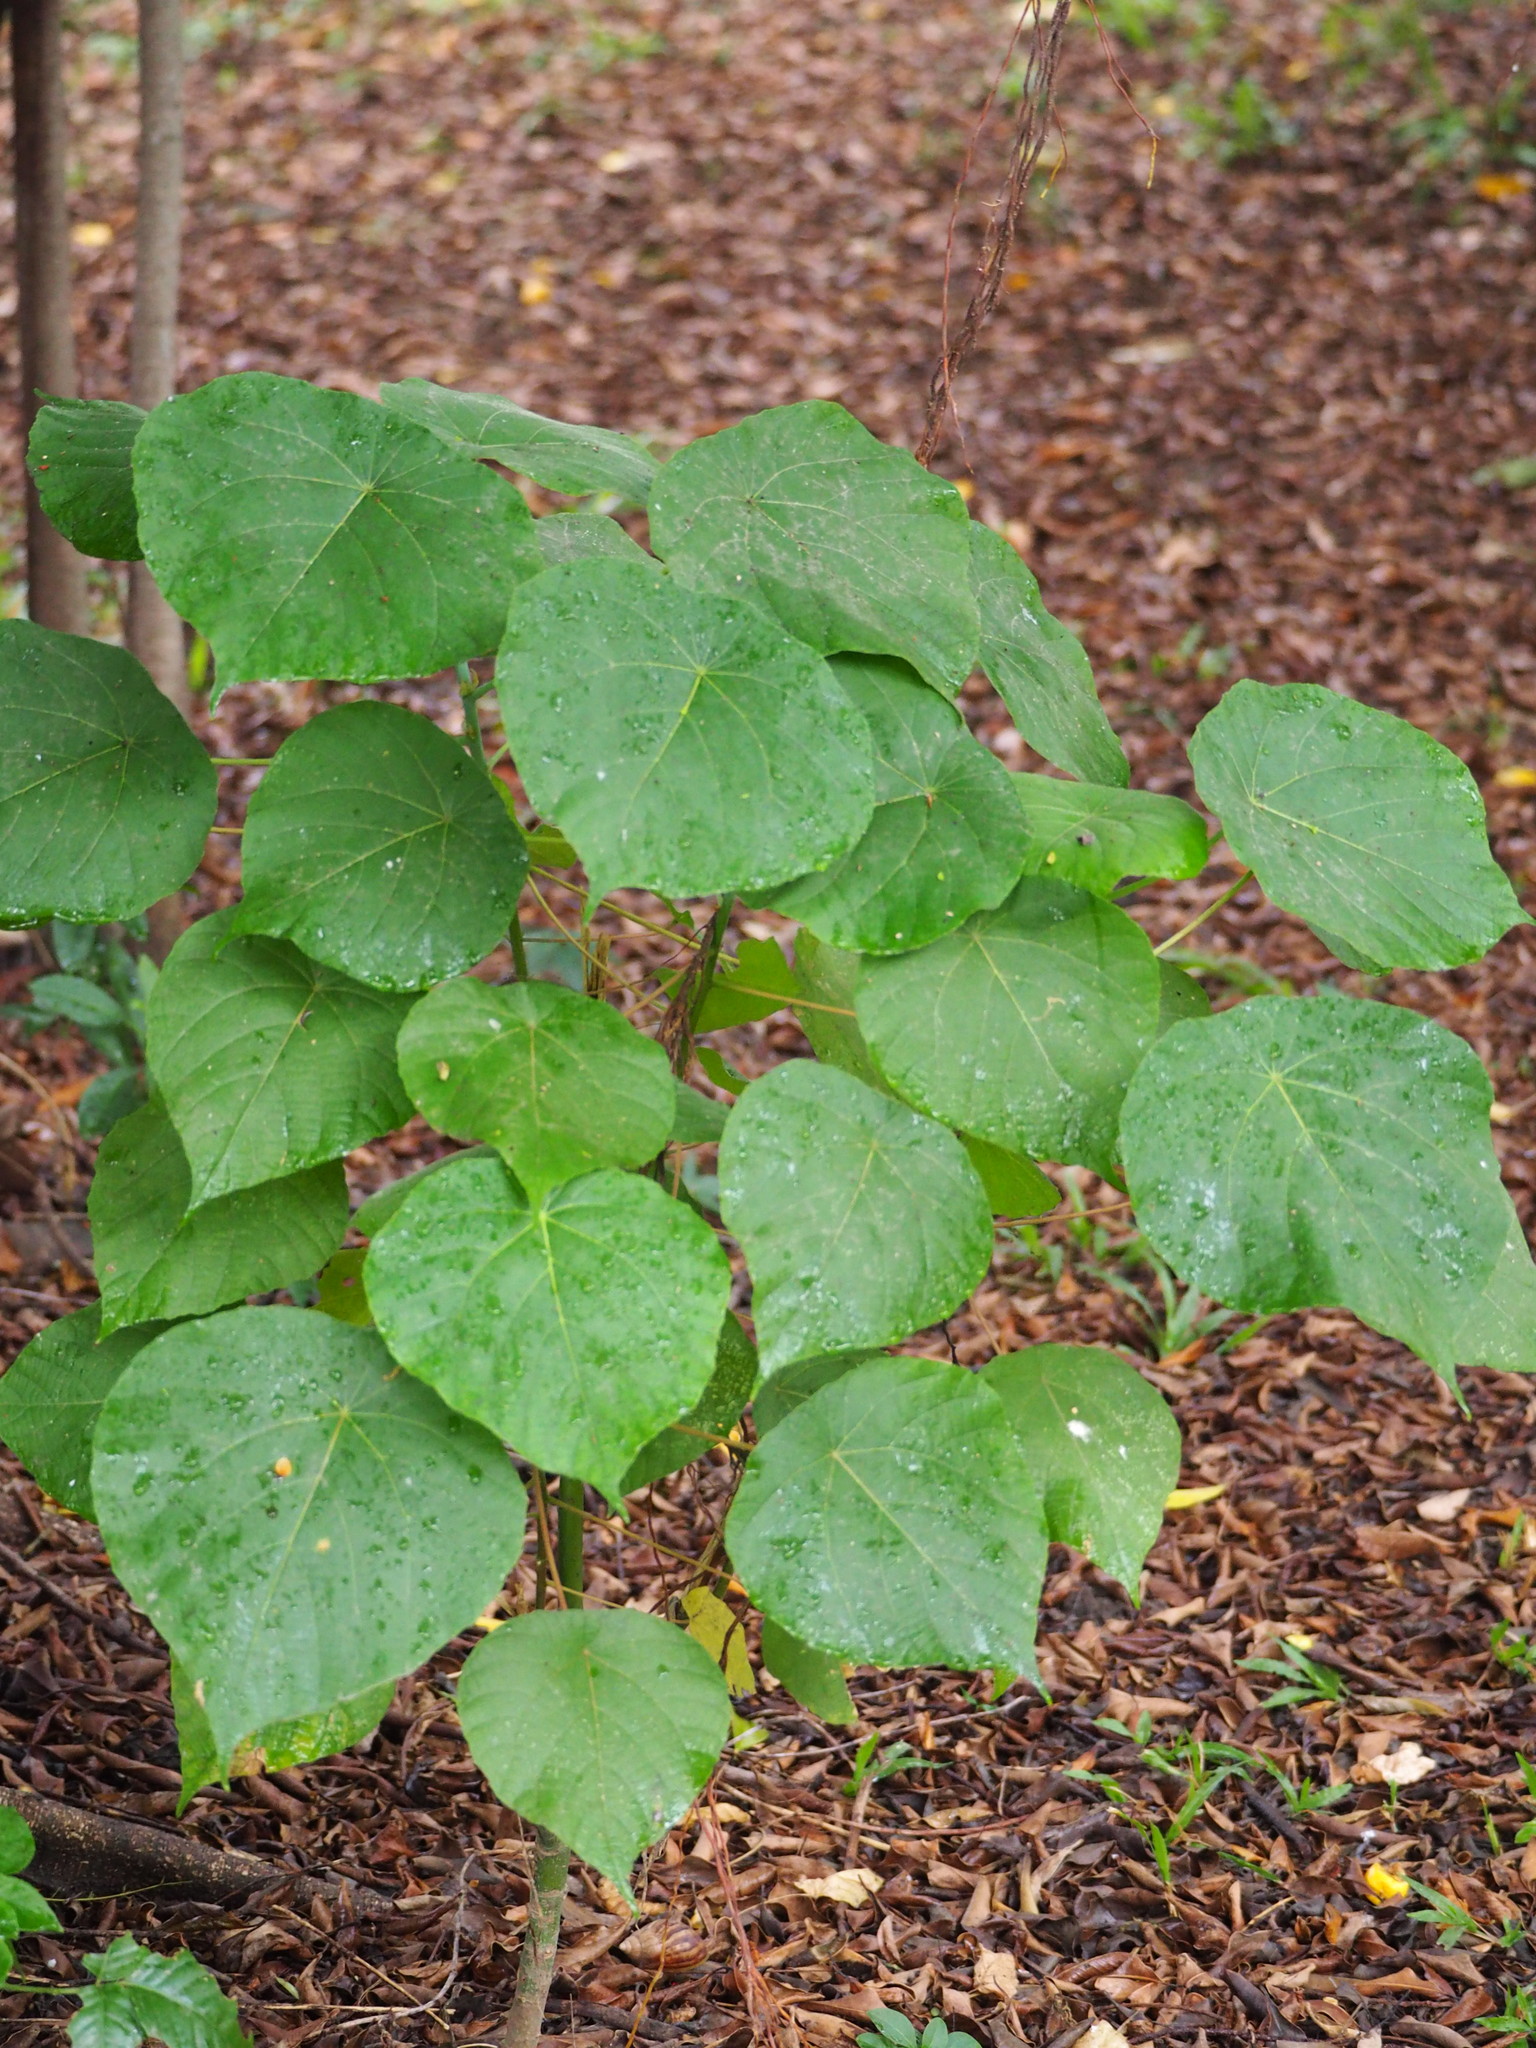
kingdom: Plantae
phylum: Tracheophyta
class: Magnoliopsida
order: Malpighiales
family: Euphorbiaceae
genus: Macaranga
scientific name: Macaranga tanarius
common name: Parasol leaf tree
